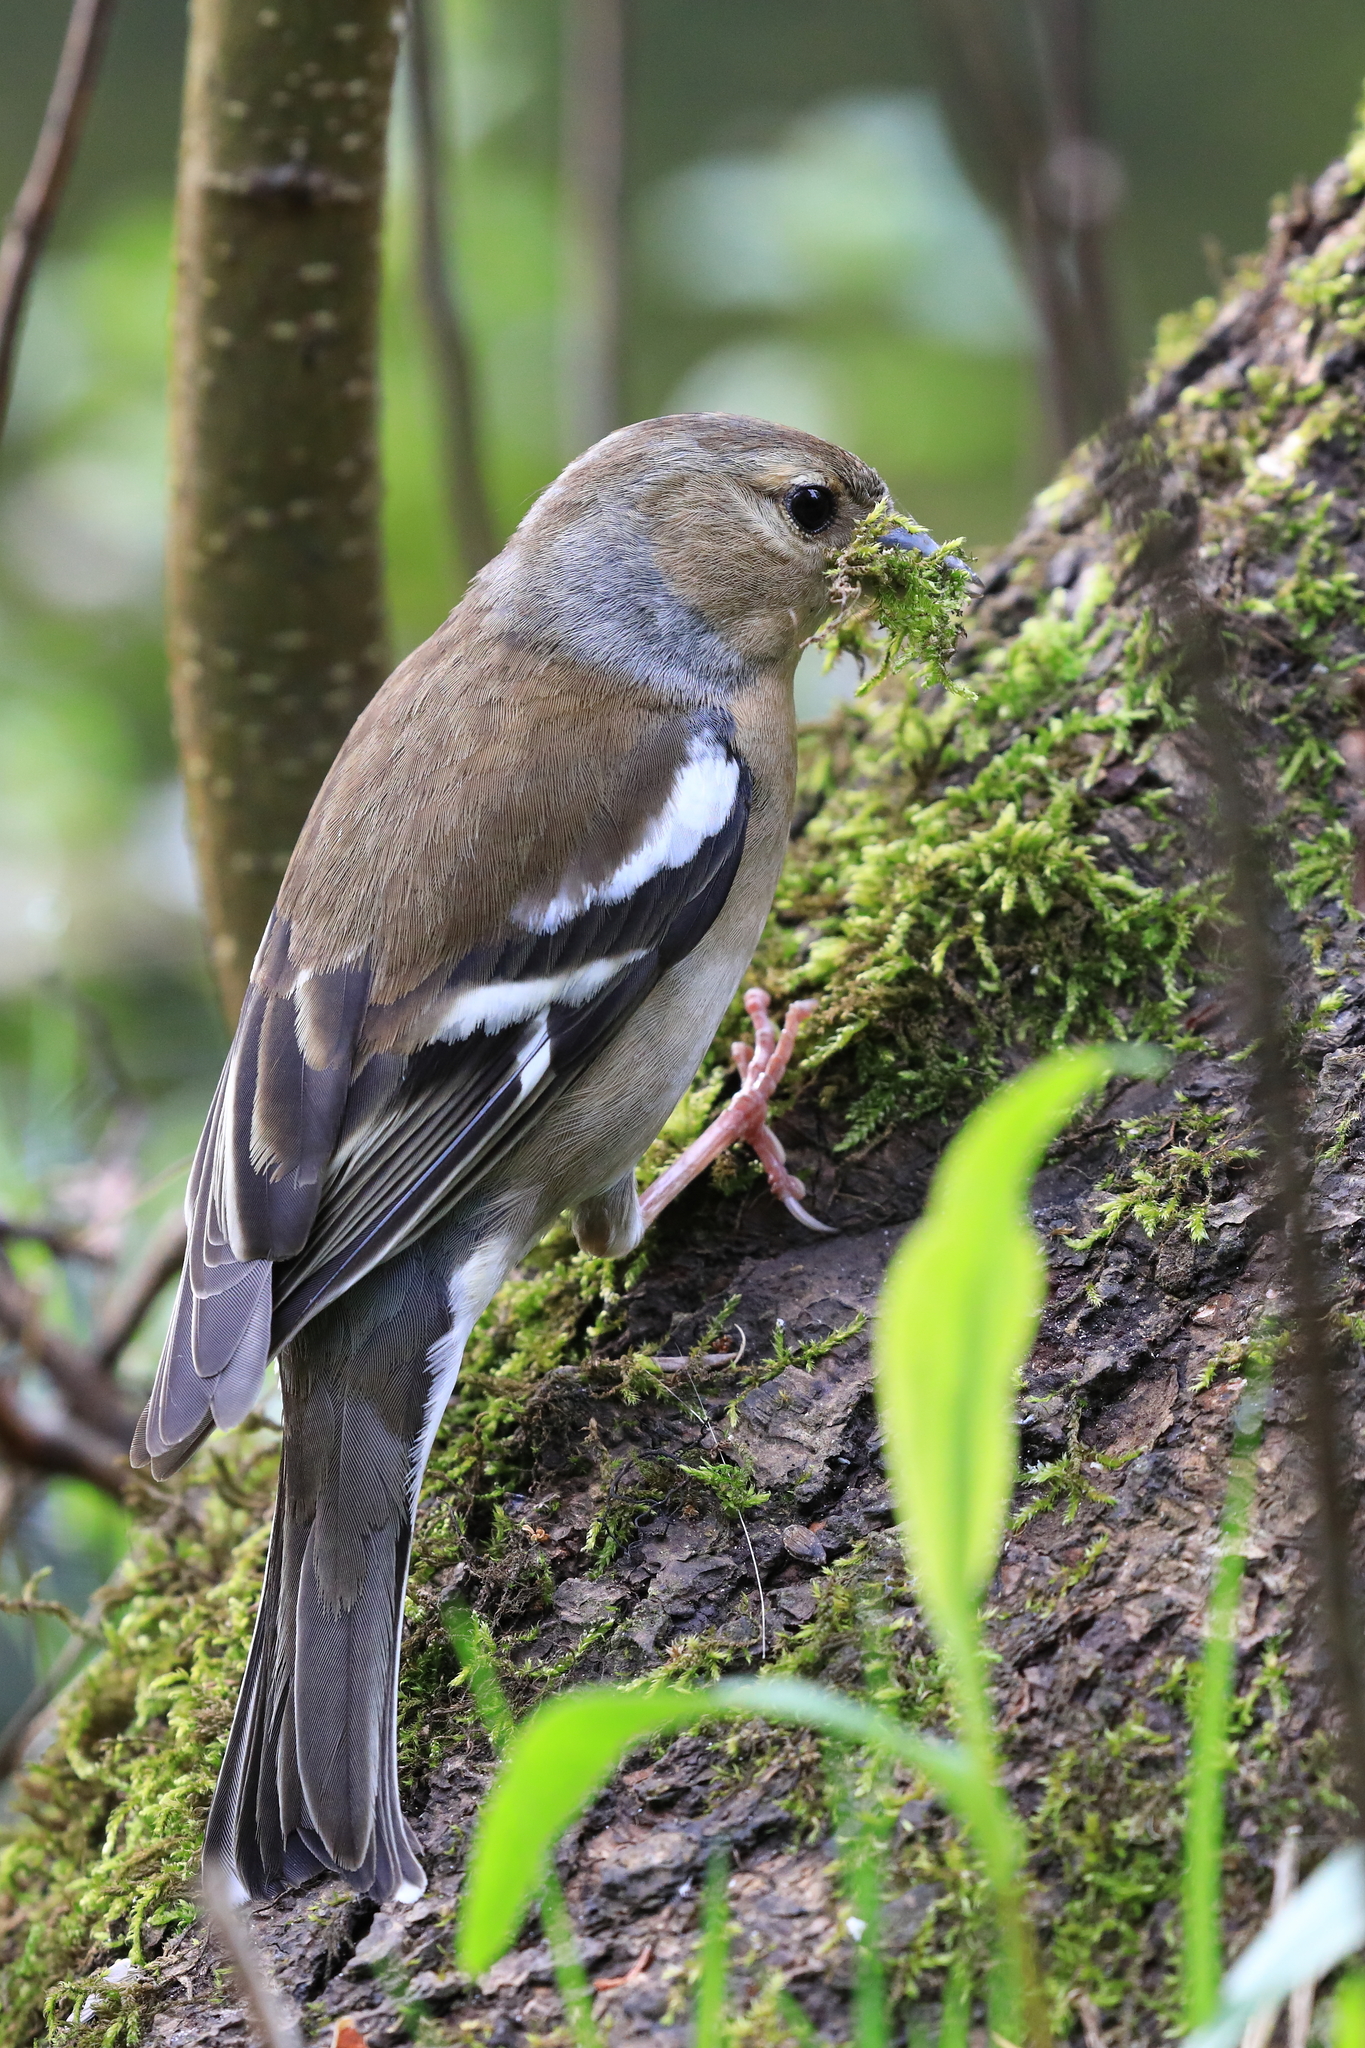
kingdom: Animalia
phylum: Chordata
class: Aves
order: Passeriformes
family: Fringillidae
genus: Fringilla
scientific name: Fringilla coelebs
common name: Common chaffinch
